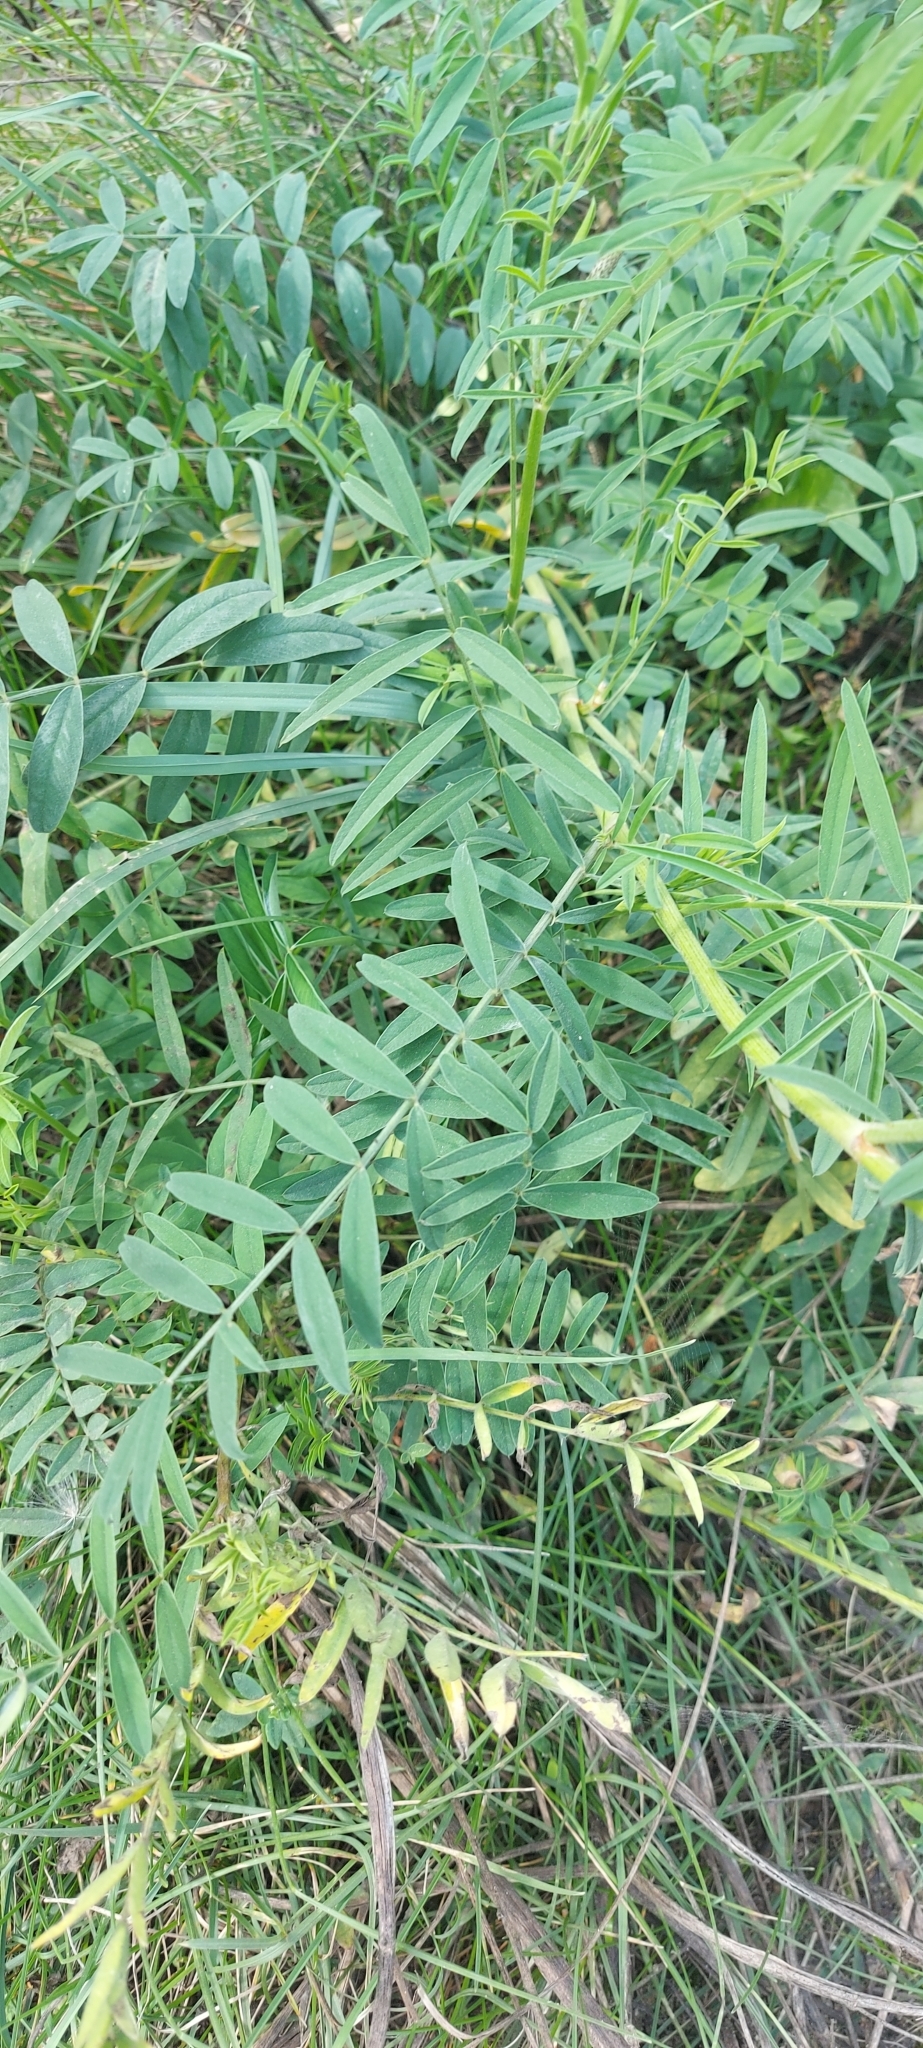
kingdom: Plantae
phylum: Tracheophyta
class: Magnoliopsida
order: Fabales
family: Fabaceae
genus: Onobrychis
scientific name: Onobrychis viciifolia
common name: Sainfoin
